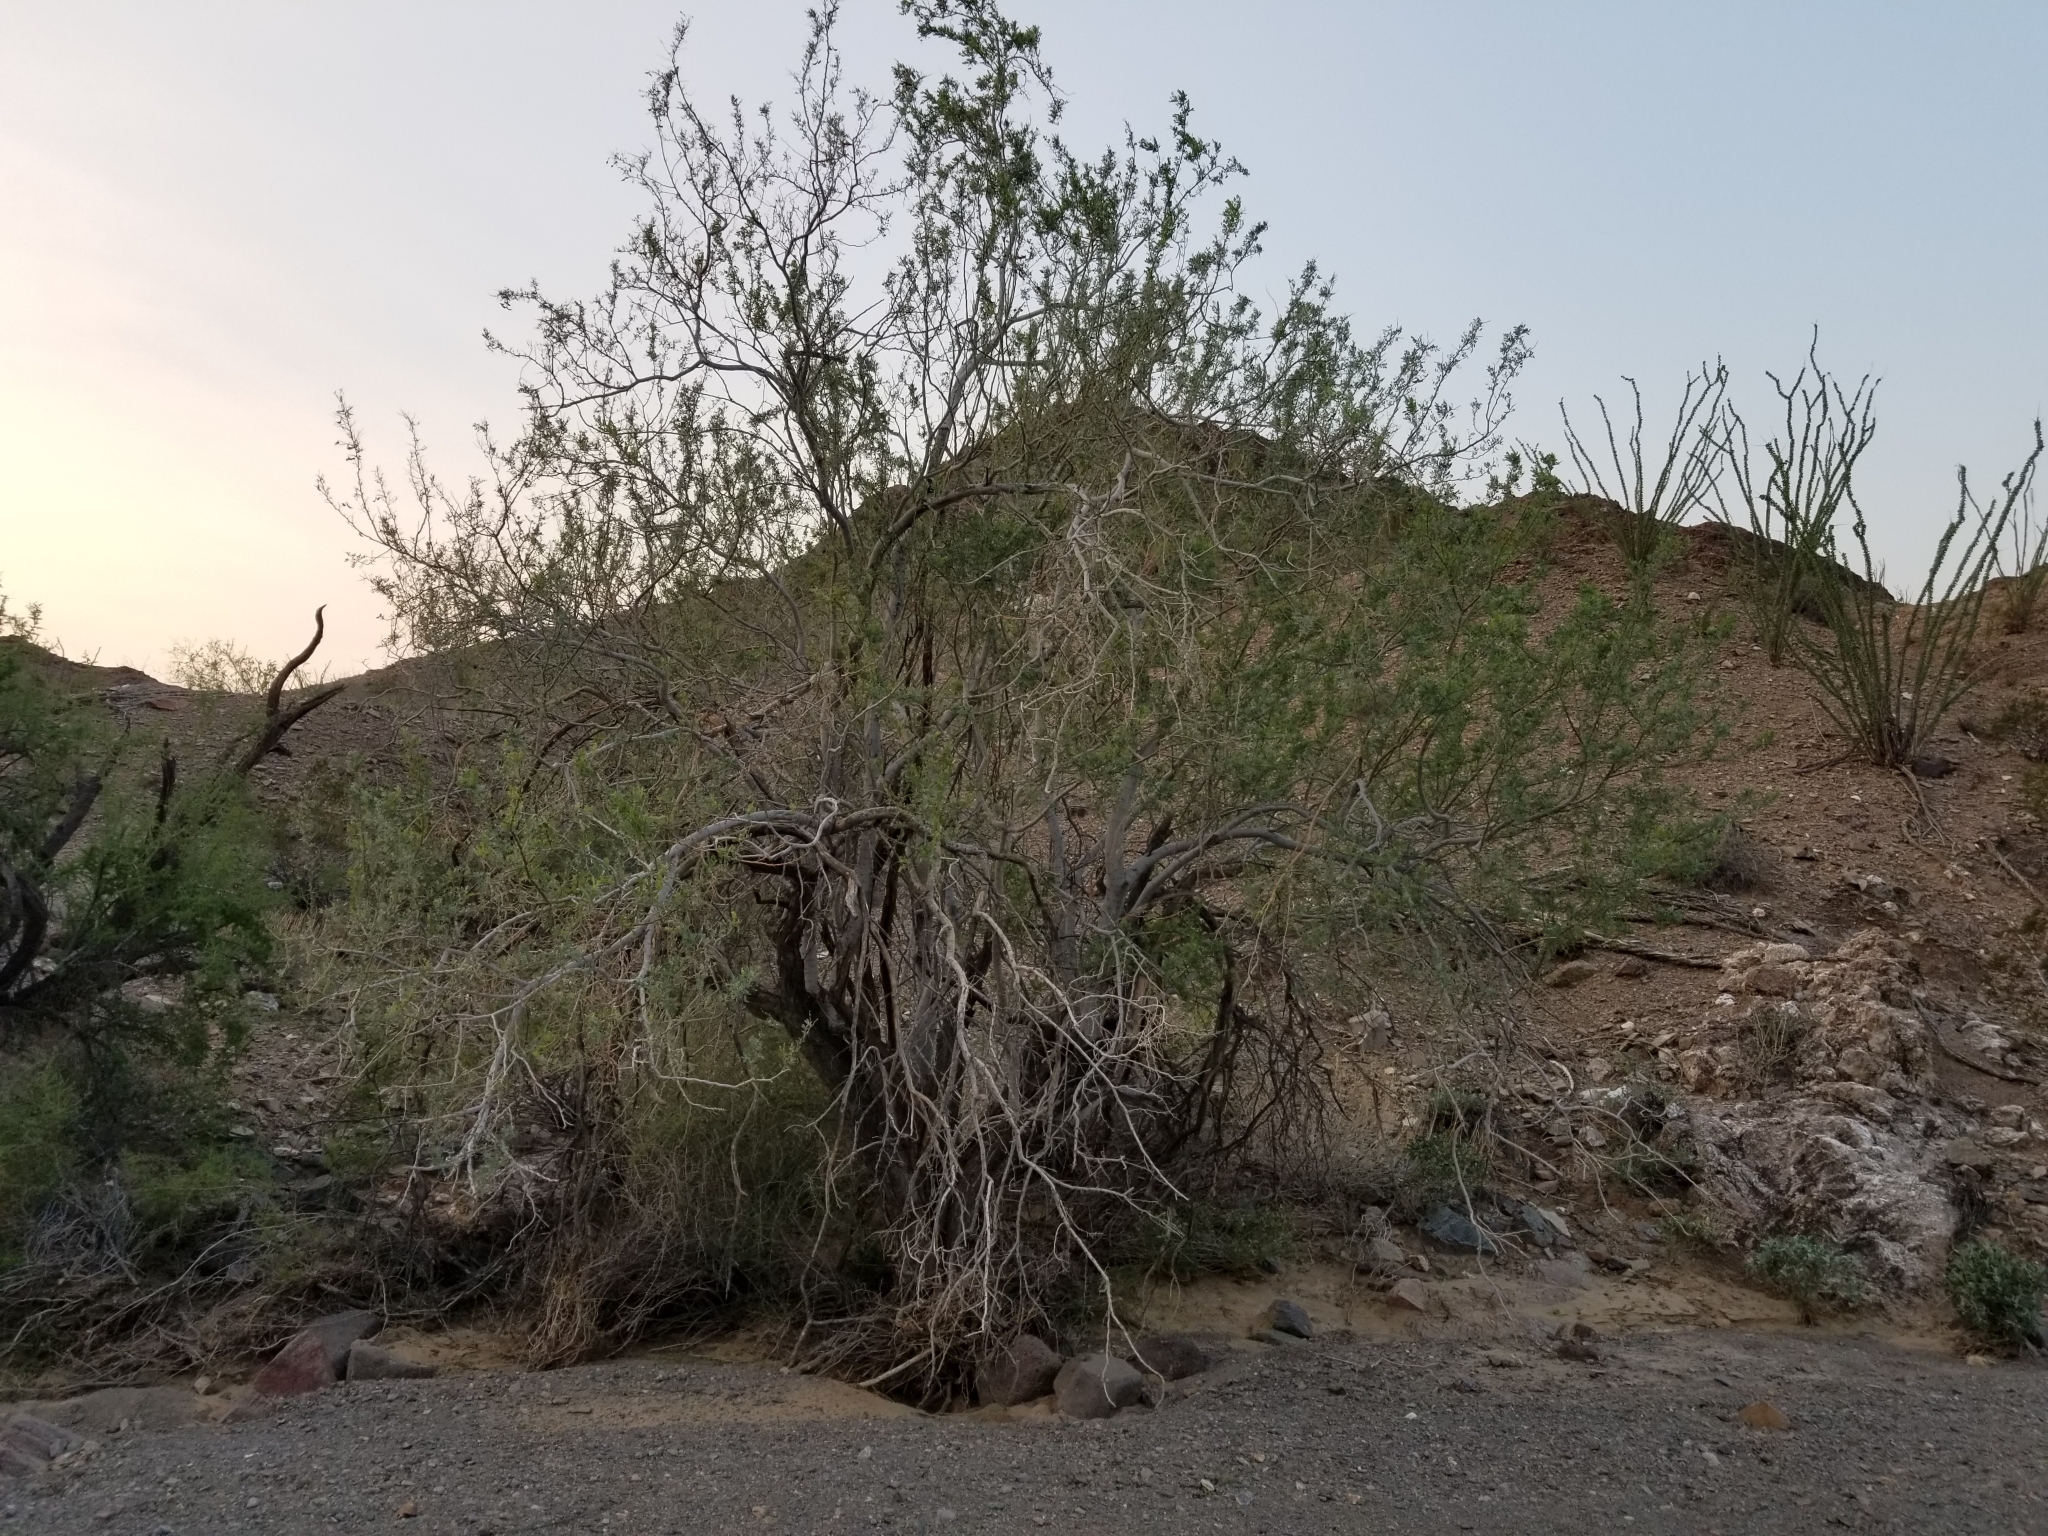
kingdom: Plantae
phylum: Tracheophyta
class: Magnoliopsida
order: Fabales
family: Fabaceae
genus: Olneya
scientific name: Olneya tesota
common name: Desert ironwood
